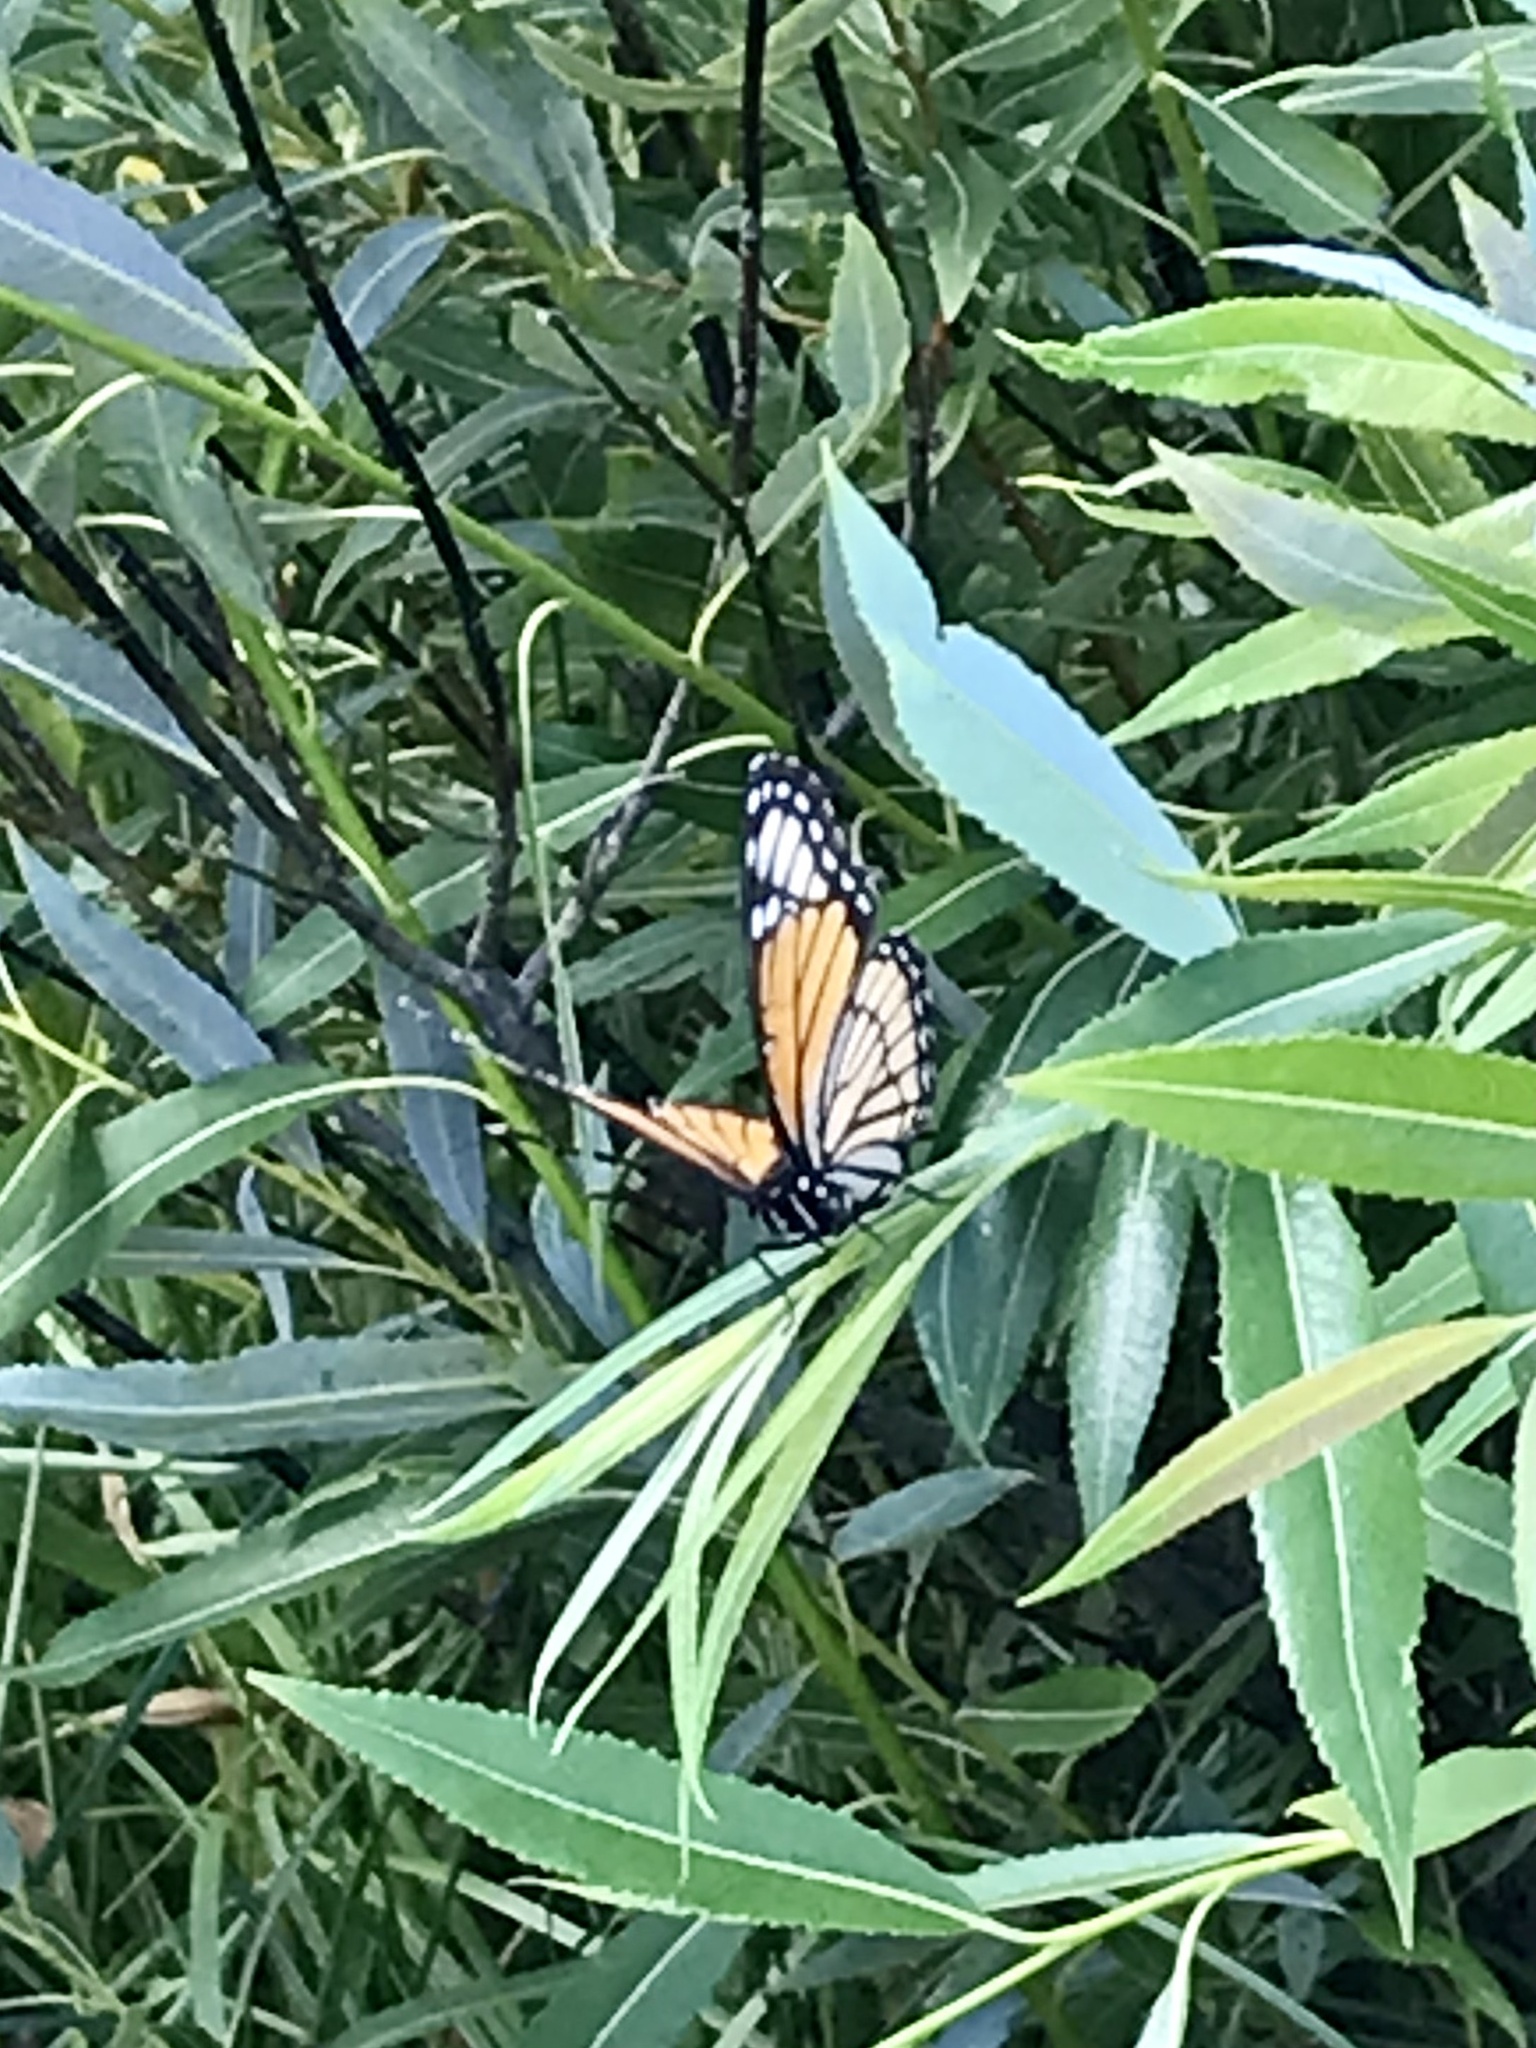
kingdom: Animalia
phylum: Arthropoda
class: Insecta
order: Lepidoptera
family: Nymphalidae
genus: Limenitis
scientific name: Limenitis archippus
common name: Viceroy
